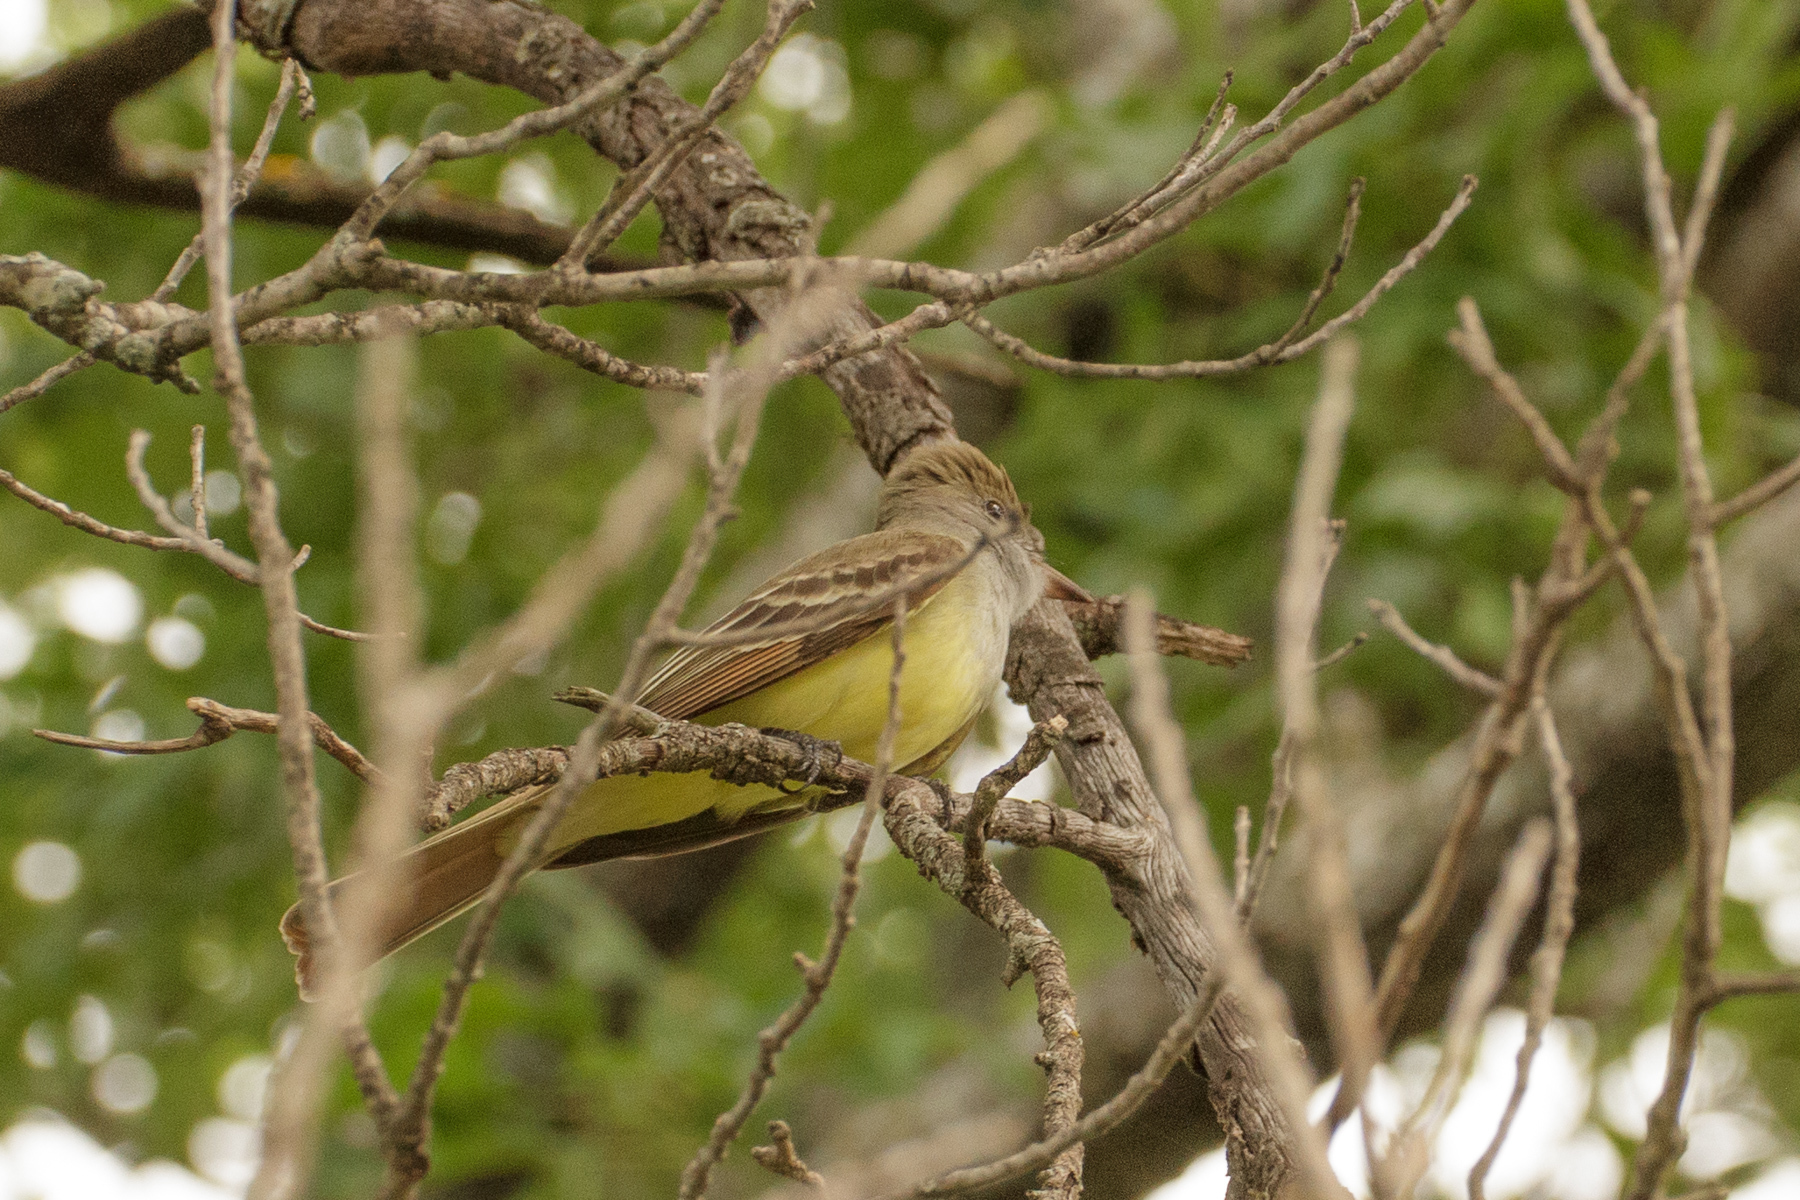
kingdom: Animalia
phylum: Chordata
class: Aves
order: Passeriformes
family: Tyrannidae
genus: Myiarchus
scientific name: Myiarchus crinitus
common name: Great crested flycatcher
